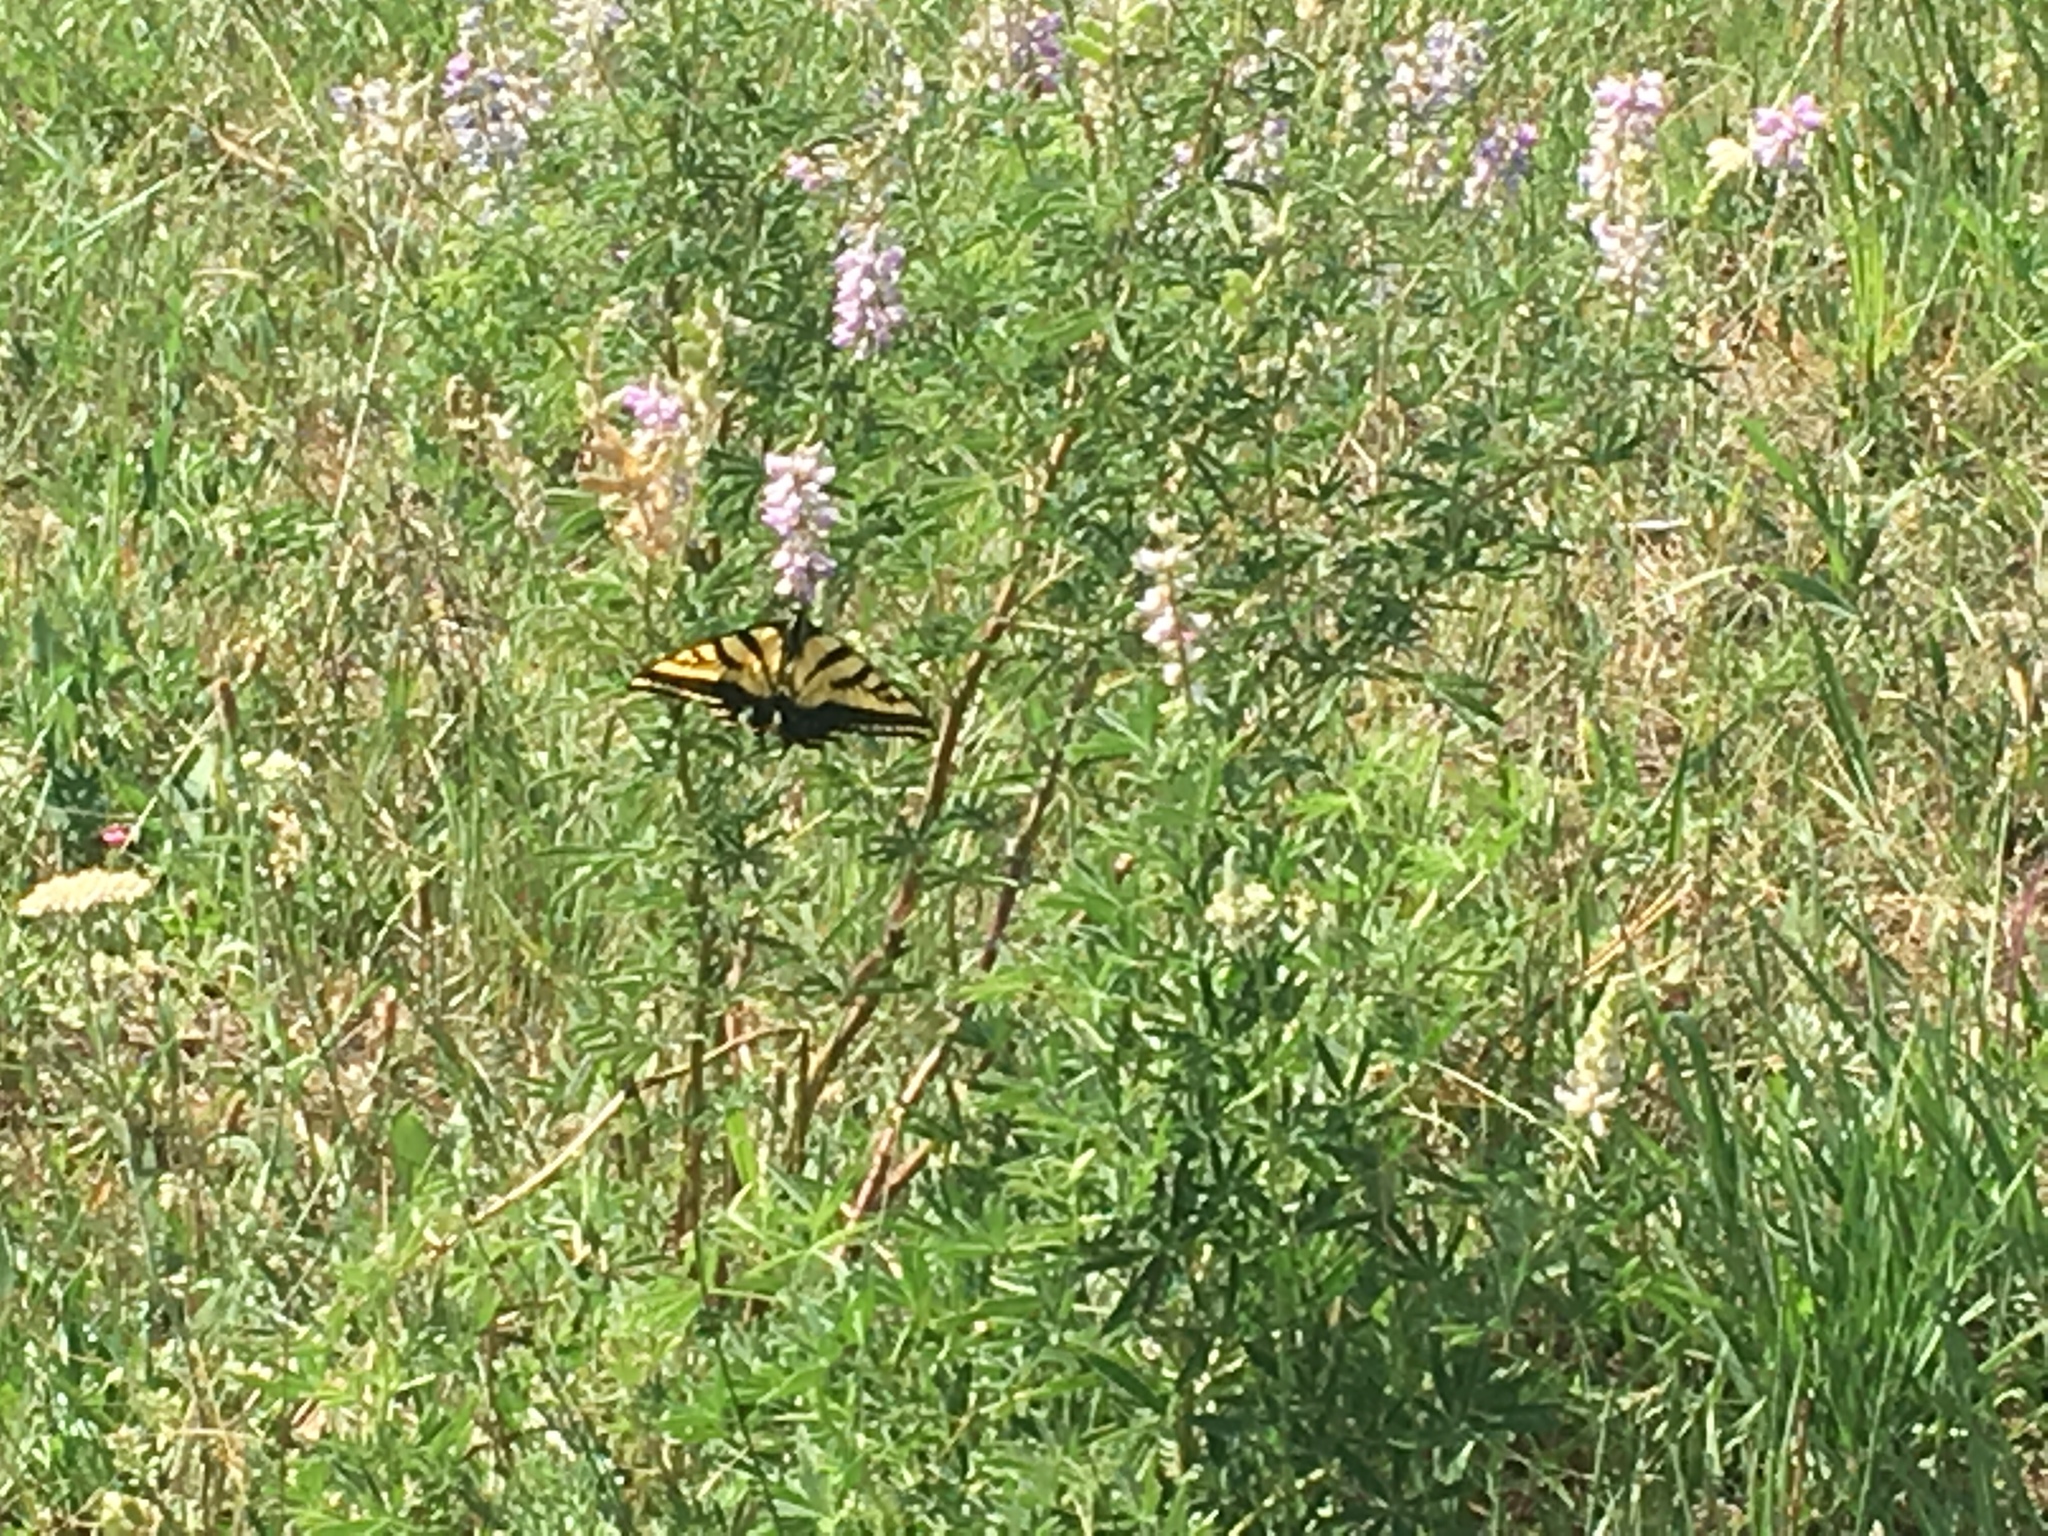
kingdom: Animalia
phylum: Arthropoda
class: Insecta
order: Lepidoptera
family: Papilionidae
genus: Papilio
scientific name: Papilio rutulus
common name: Western tiger swallowtail
